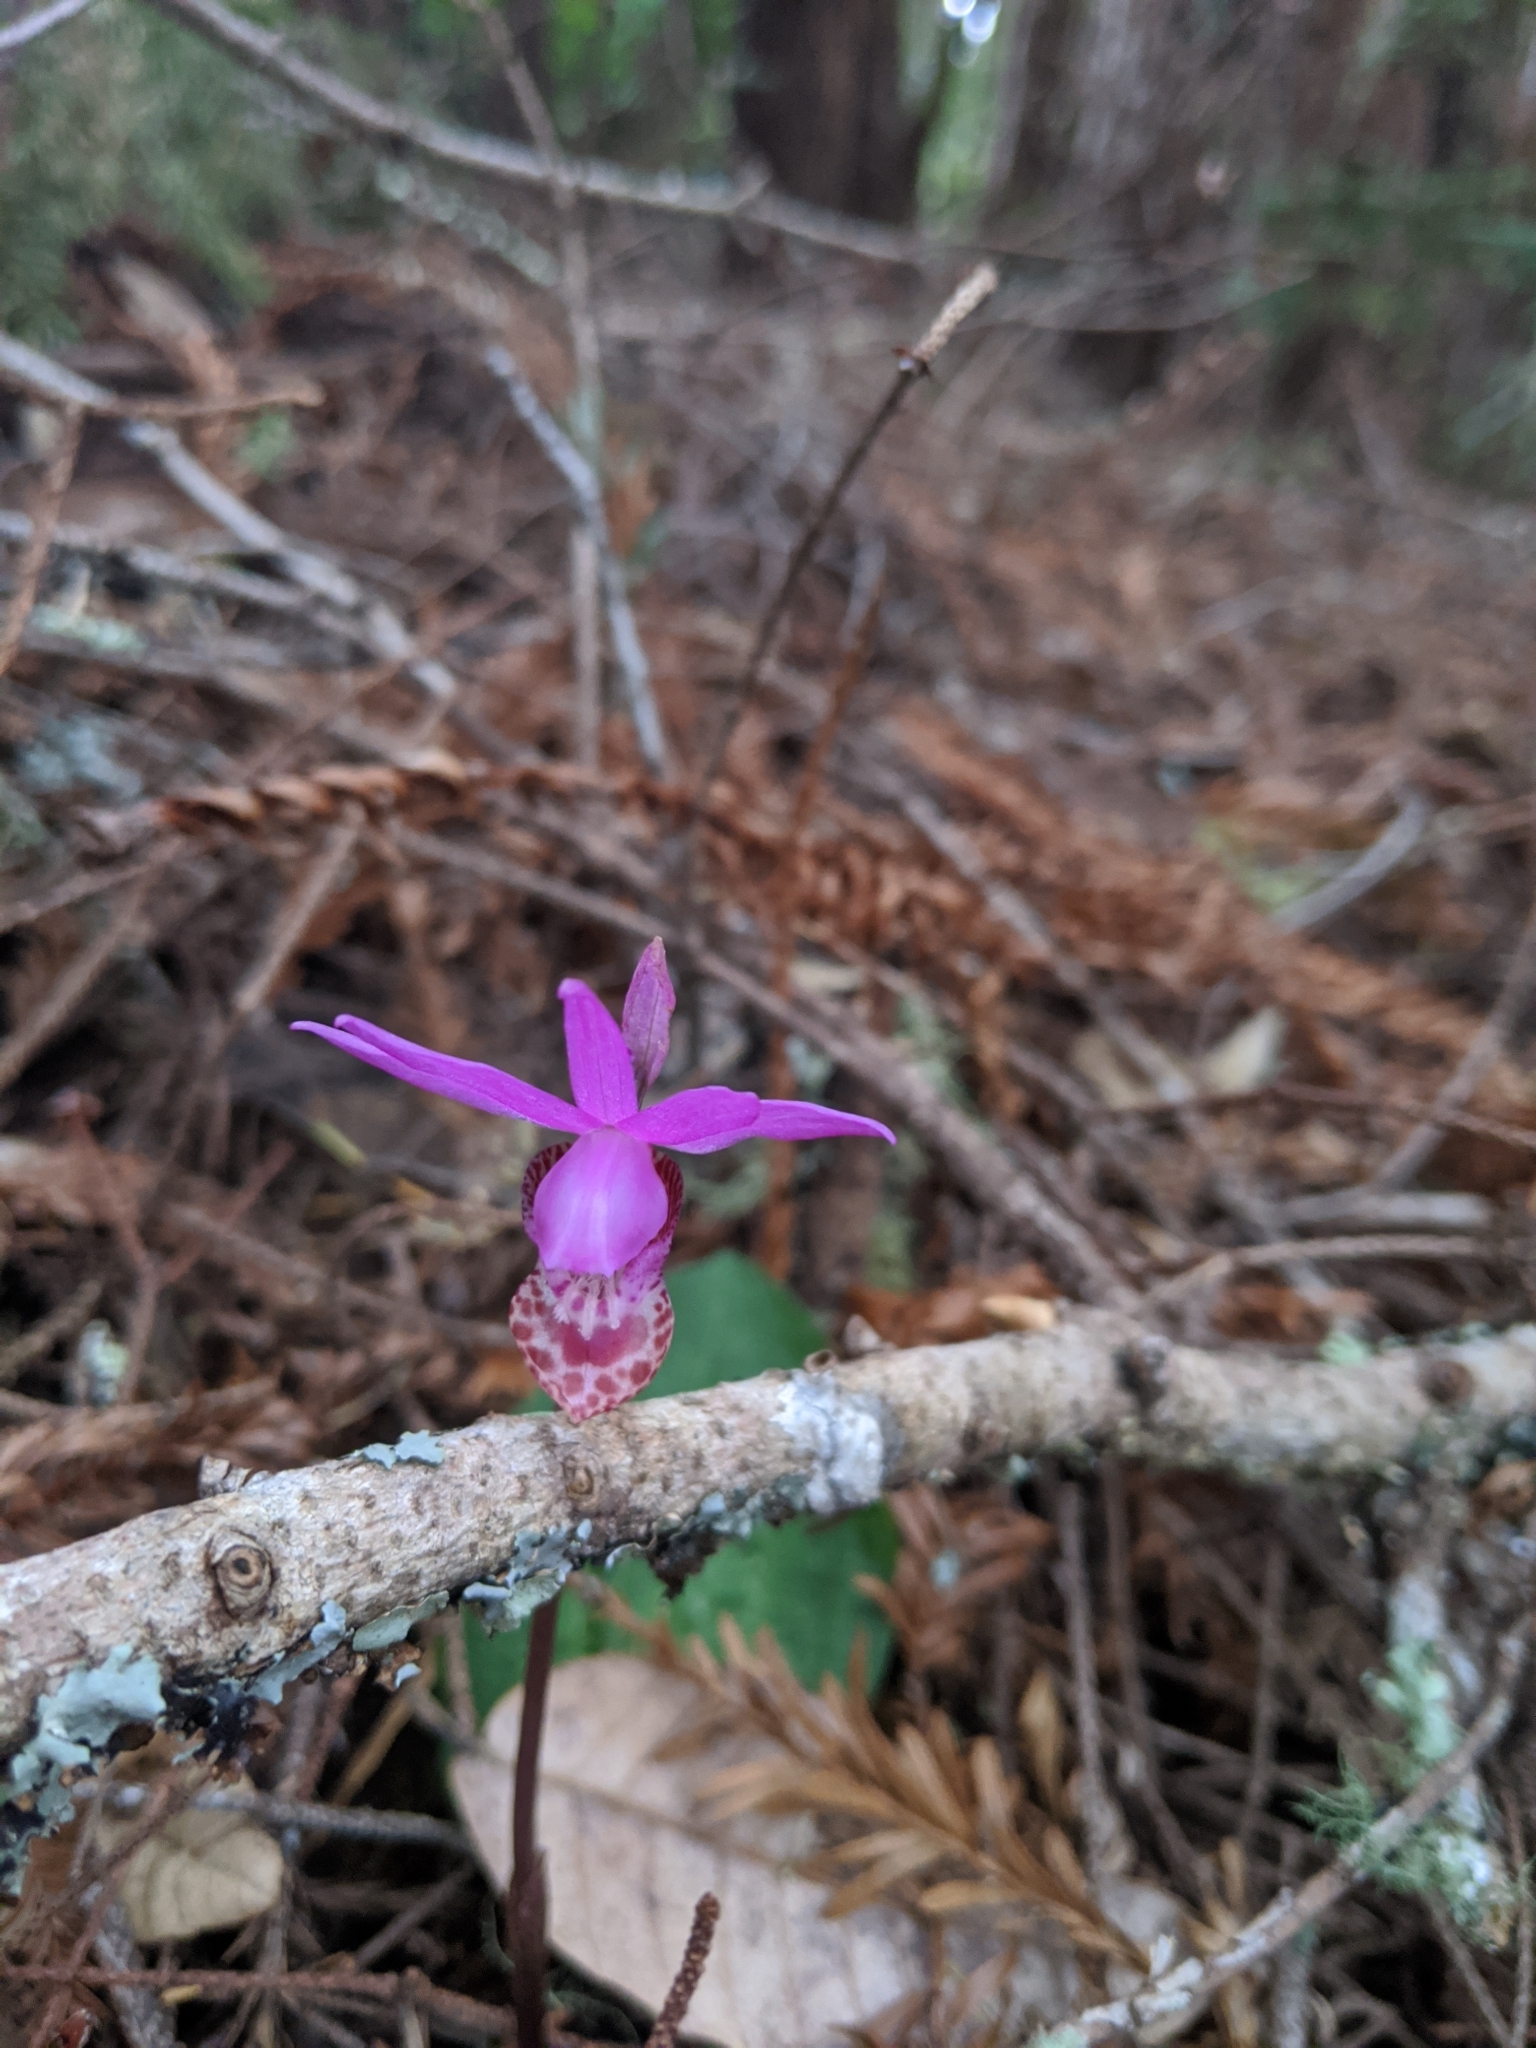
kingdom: Plantae
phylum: Tracheophyta
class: Liliopsida
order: Asparagales
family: Orchidaceae
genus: Calypso
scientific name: Calypso bulbosa
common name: Calypso
